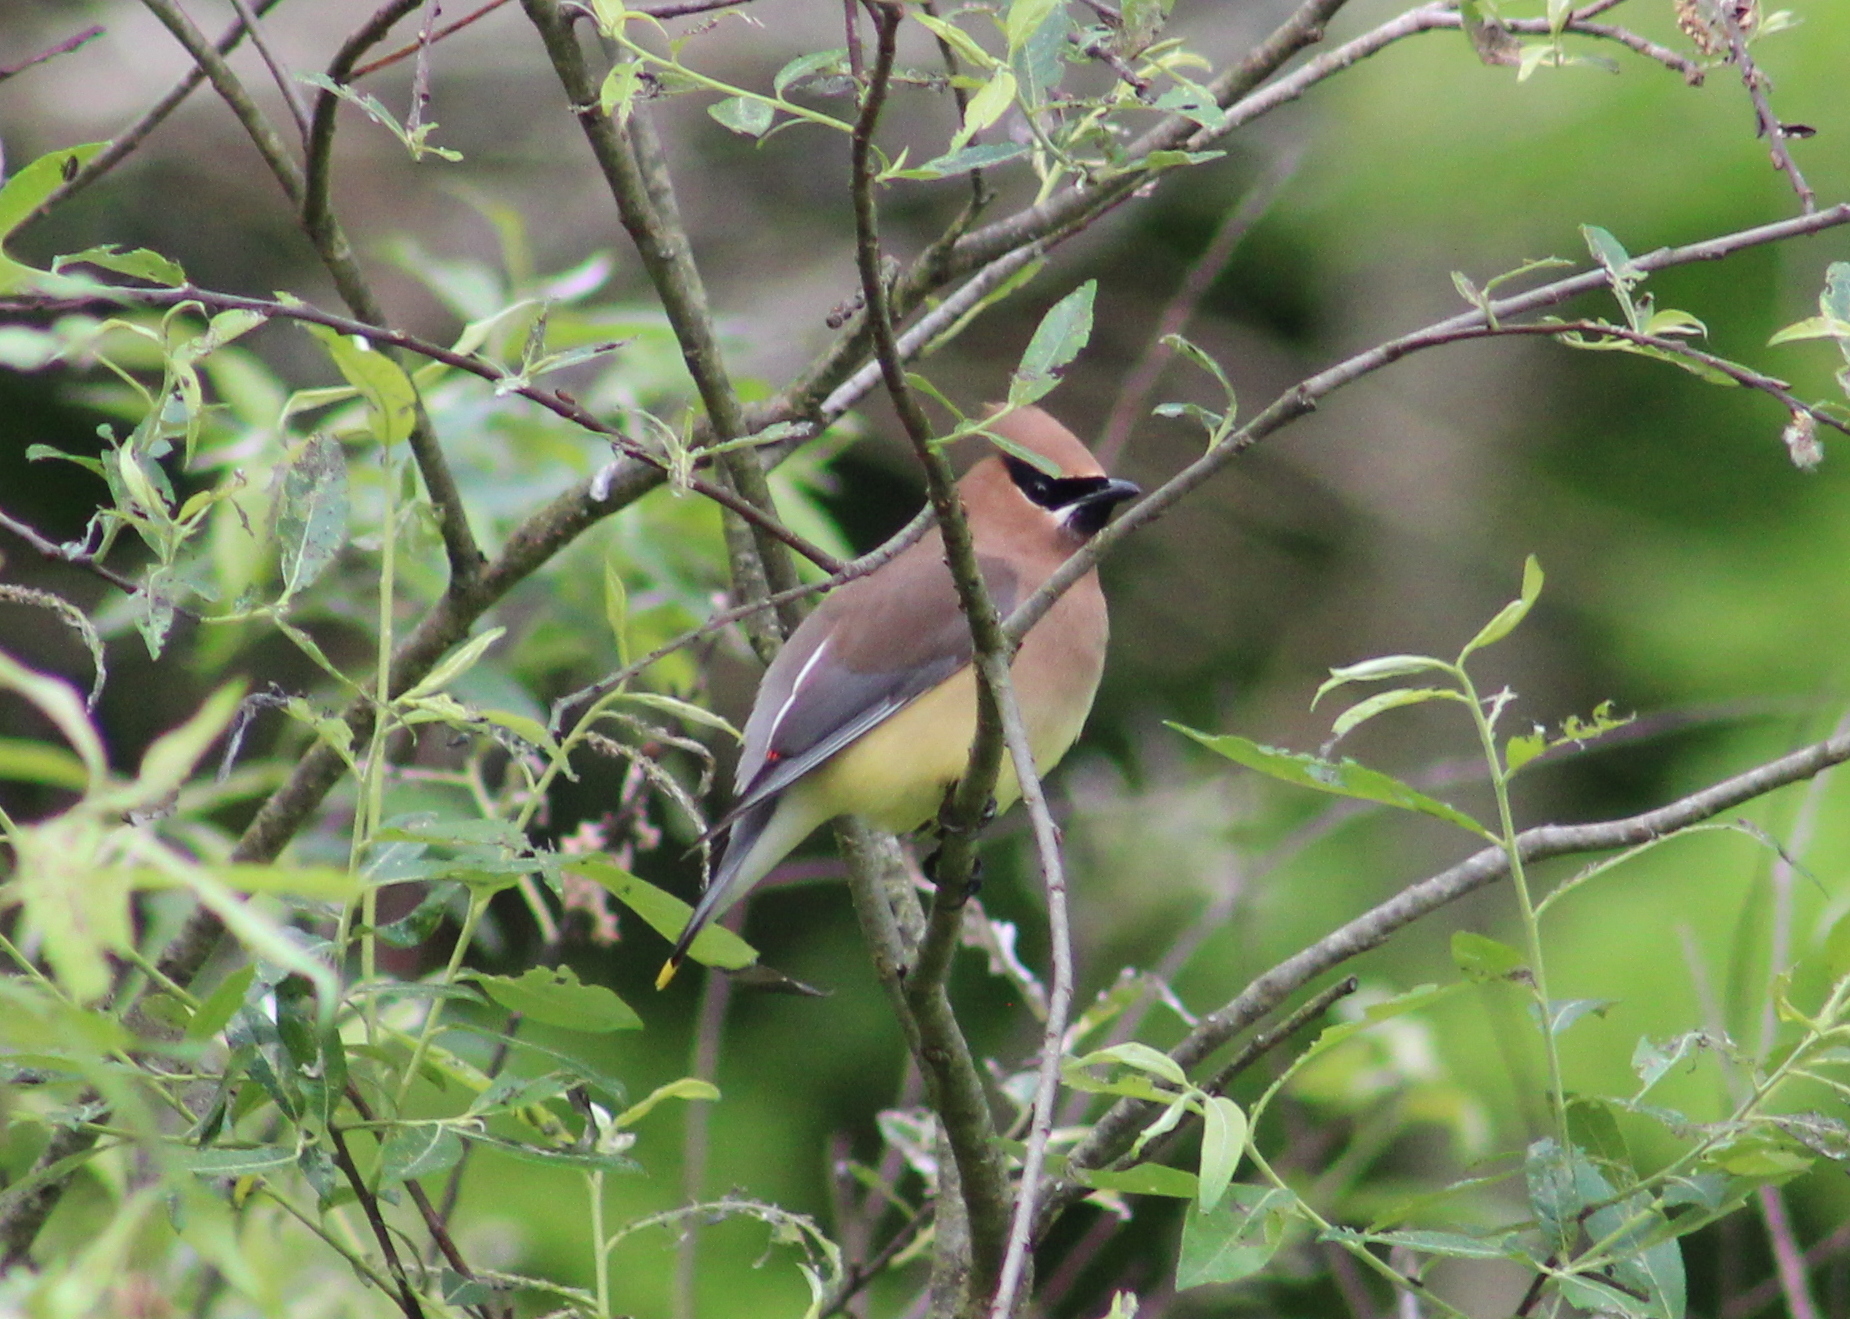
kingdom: Animalia
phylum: Chordata
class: Aves
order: Passeriformes
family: Bombycillidae
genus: Bombycilla
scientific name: Bombycilla cedrorum
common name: Cedar waxwing
